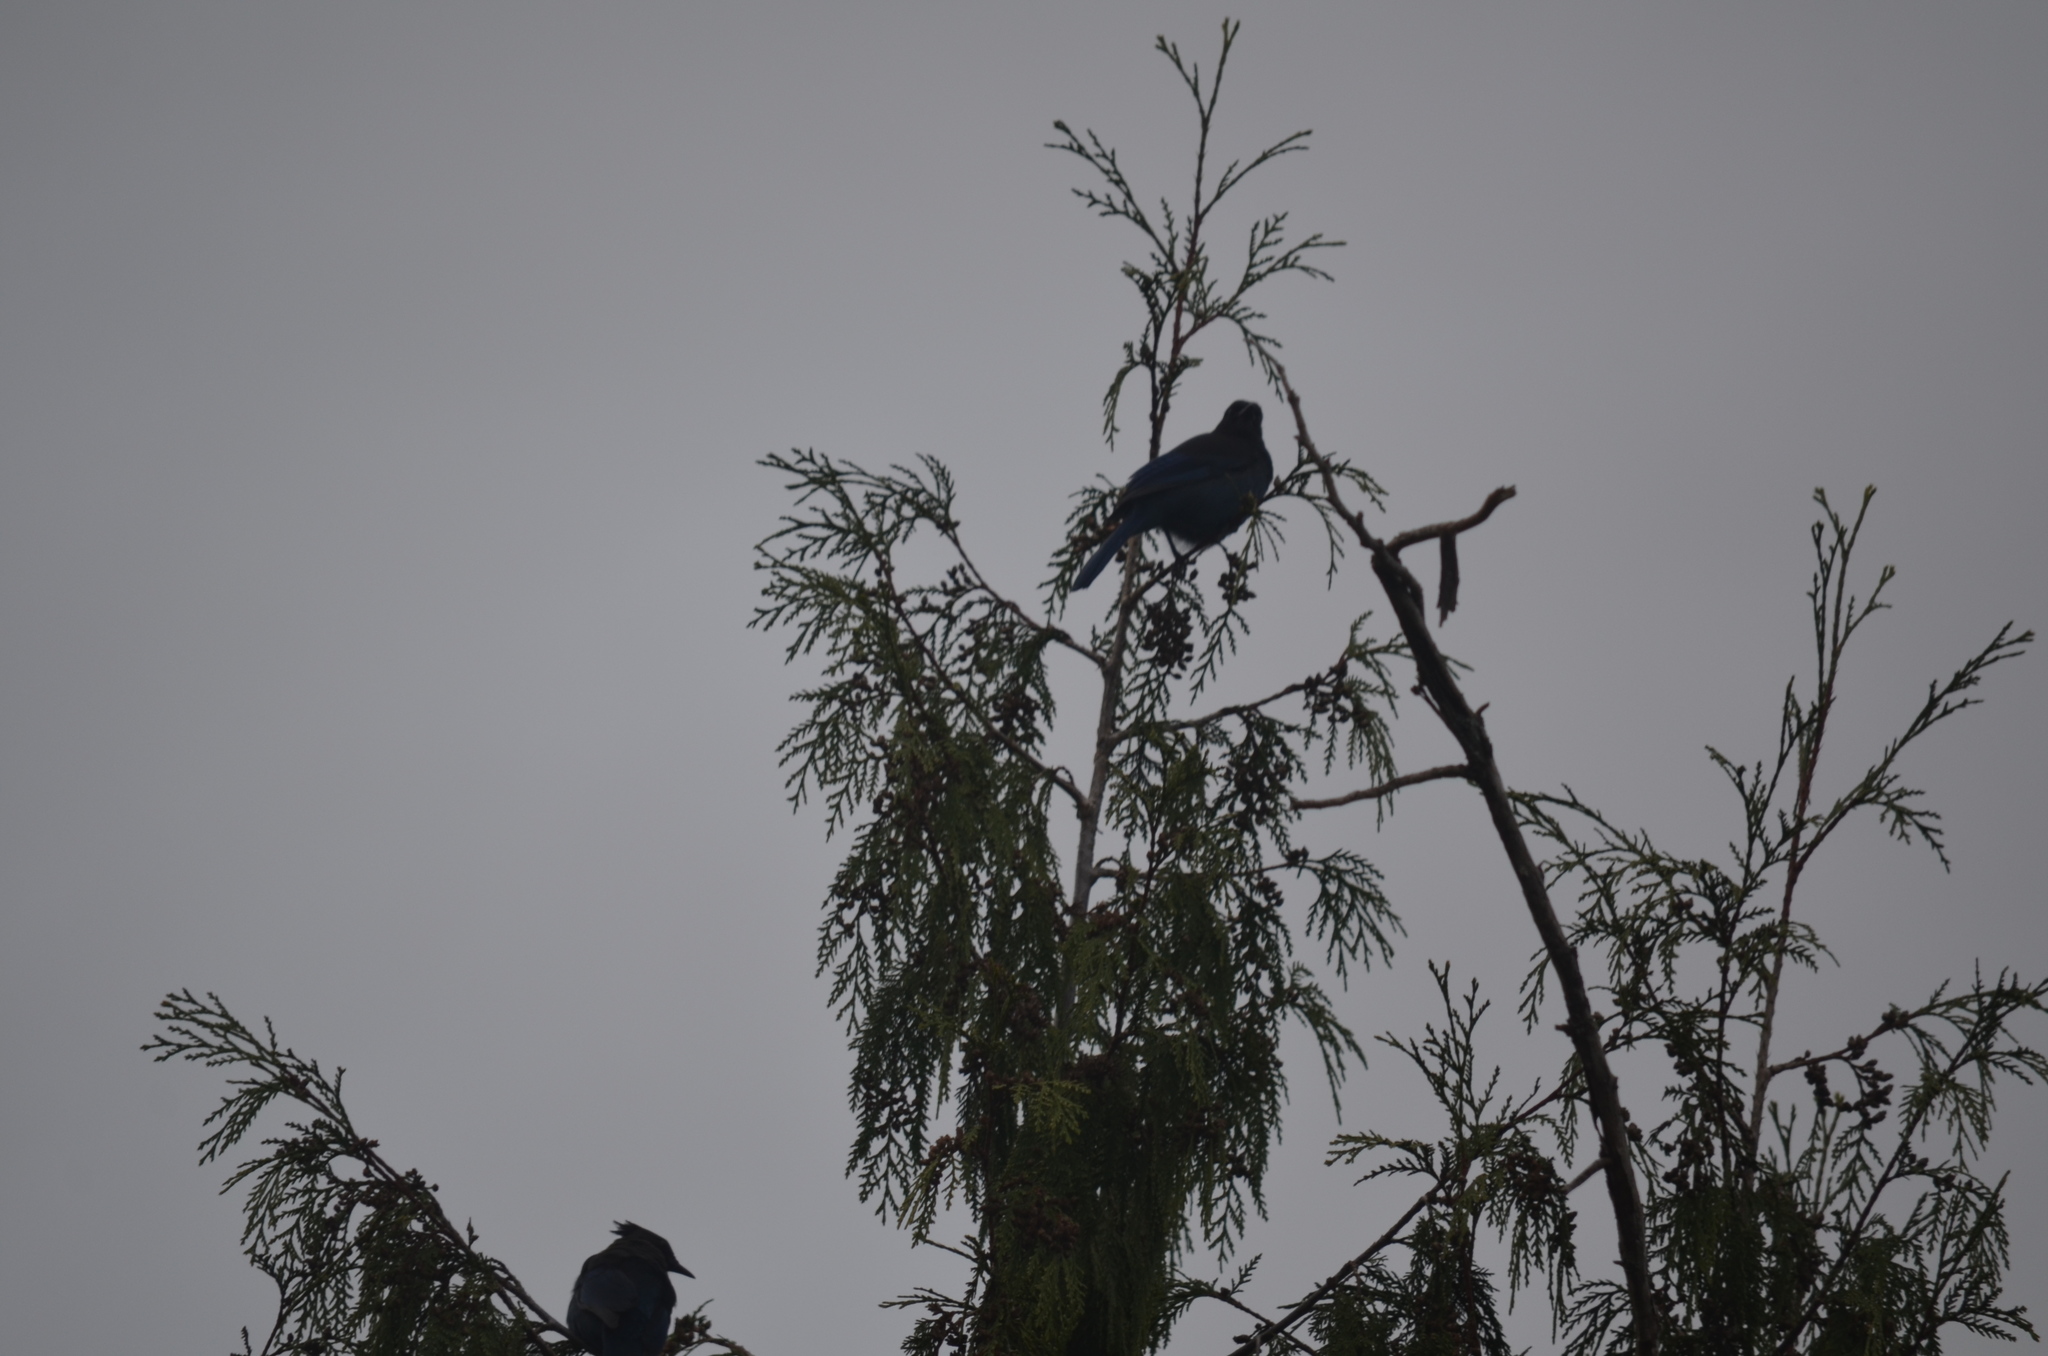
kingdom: Animalia
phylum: Chordata
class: Aves
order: Passeriformes
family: Corvidae
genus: Cyanocitta
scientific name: Cyanocitta stelleri
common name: Steller's jay
